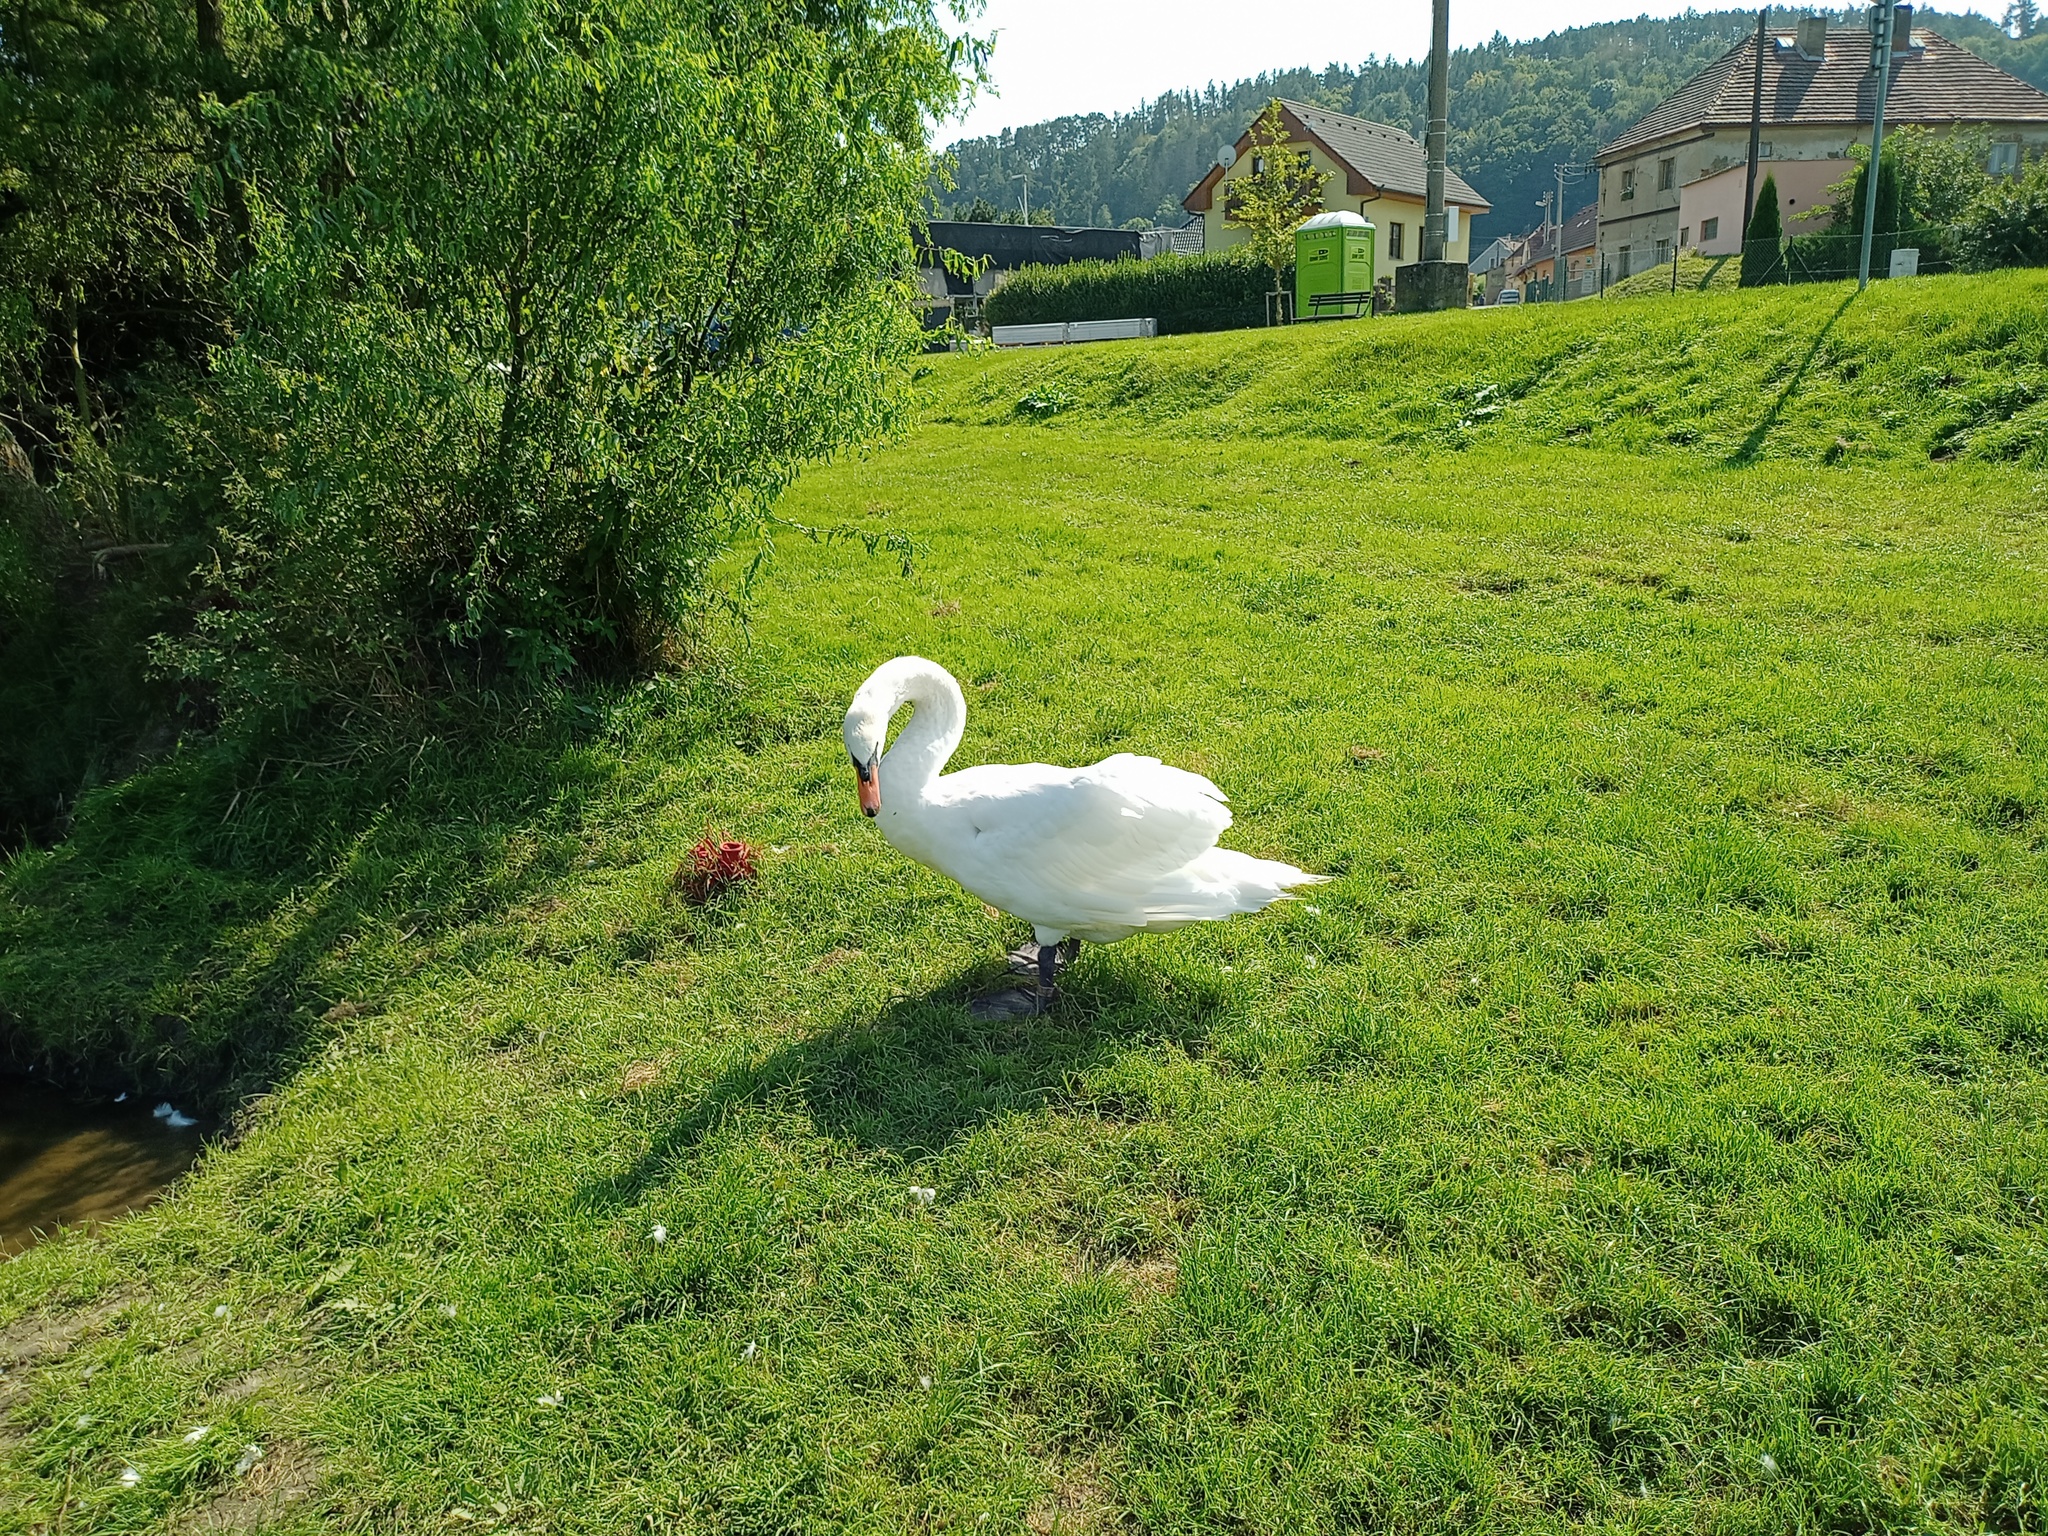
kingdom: Animalia
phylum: Chordata
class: Aves
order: Anseriformes
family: Anatidae
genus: Cygnus
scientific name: Cygnus olor
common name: Mute swan
